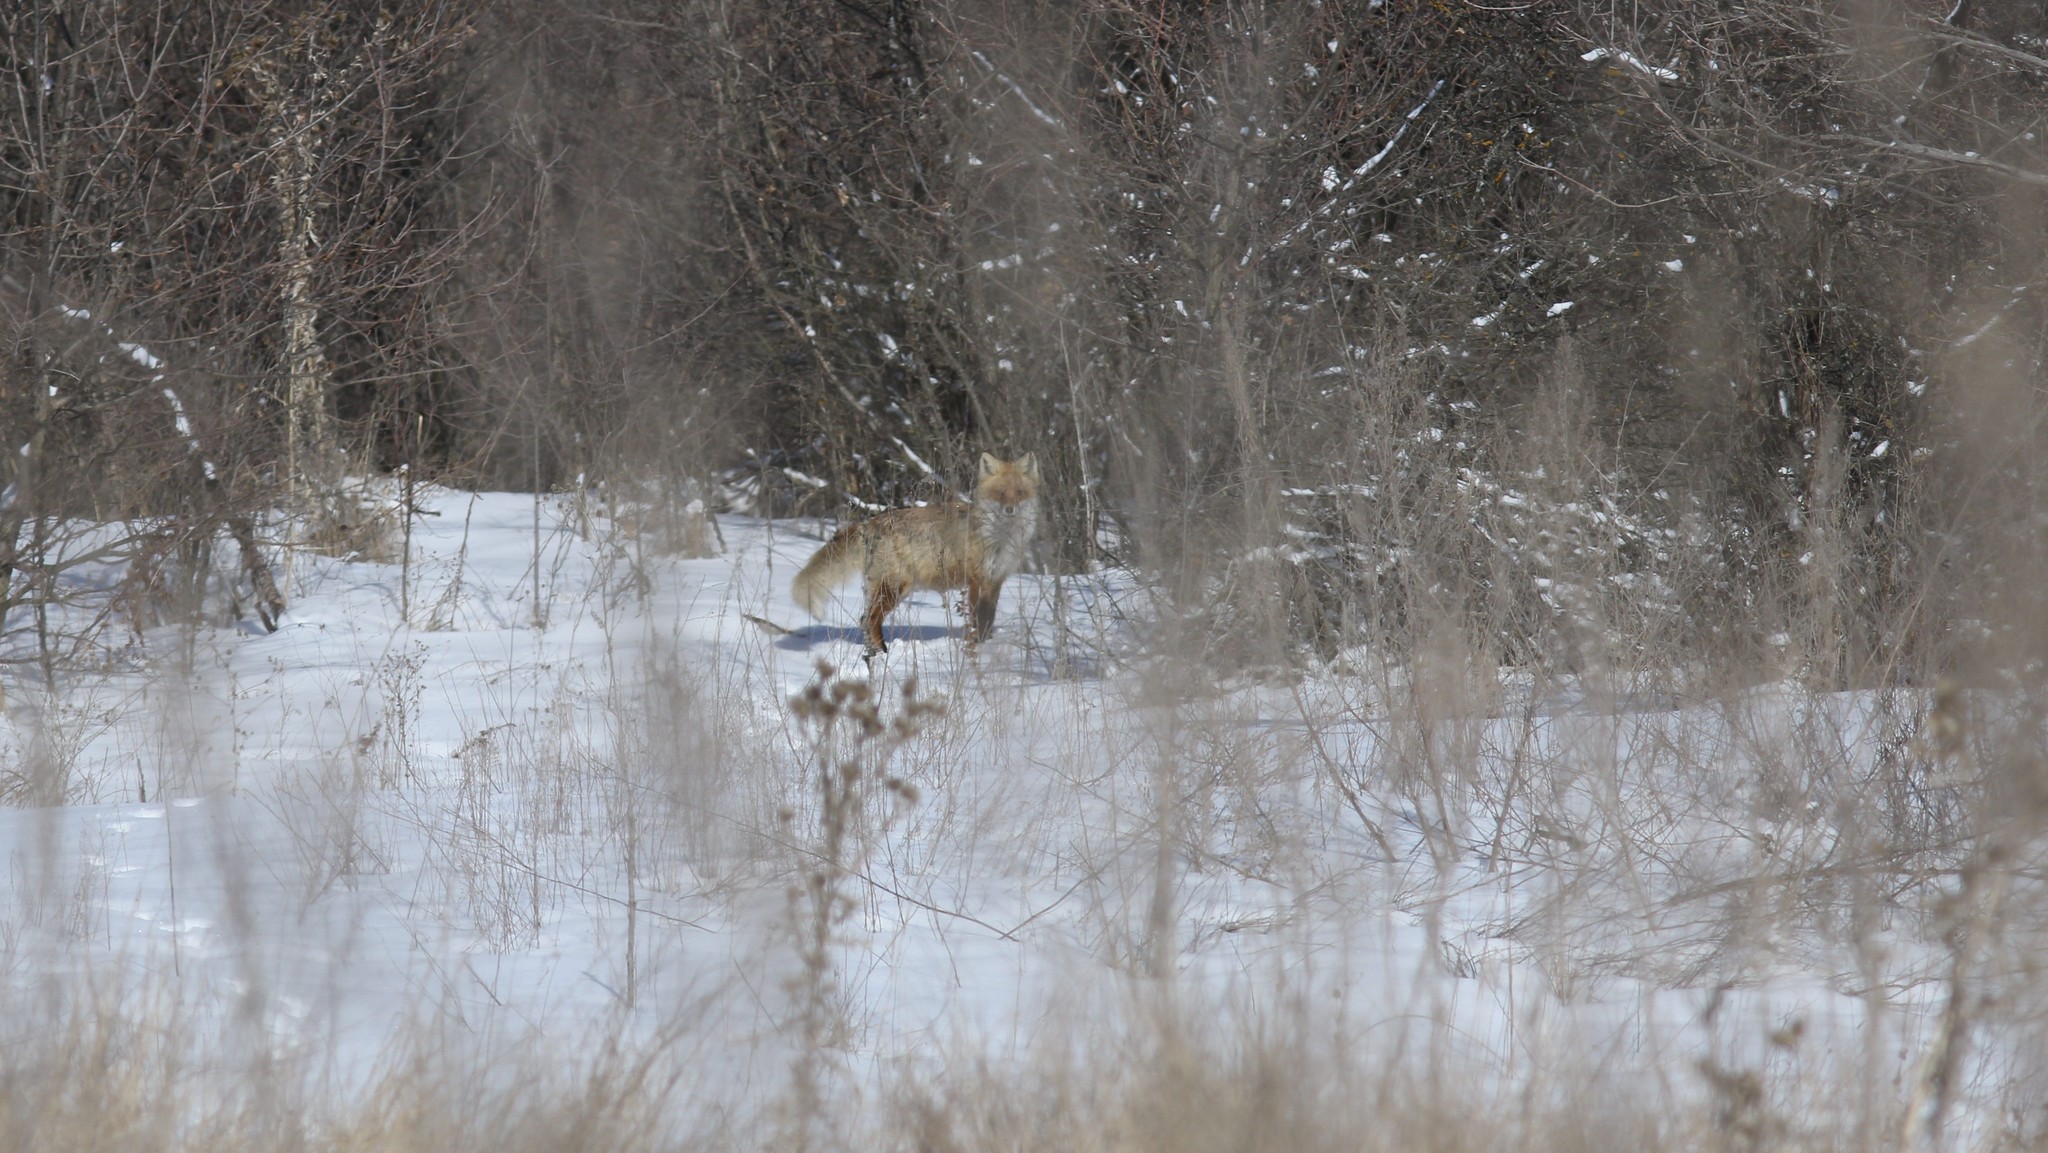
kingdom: Animalia
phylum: Chordata
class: Mammalia
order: Carnivora
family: Canidae
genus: Vulpes
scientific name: Vulpes vulpes
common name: Red fox
